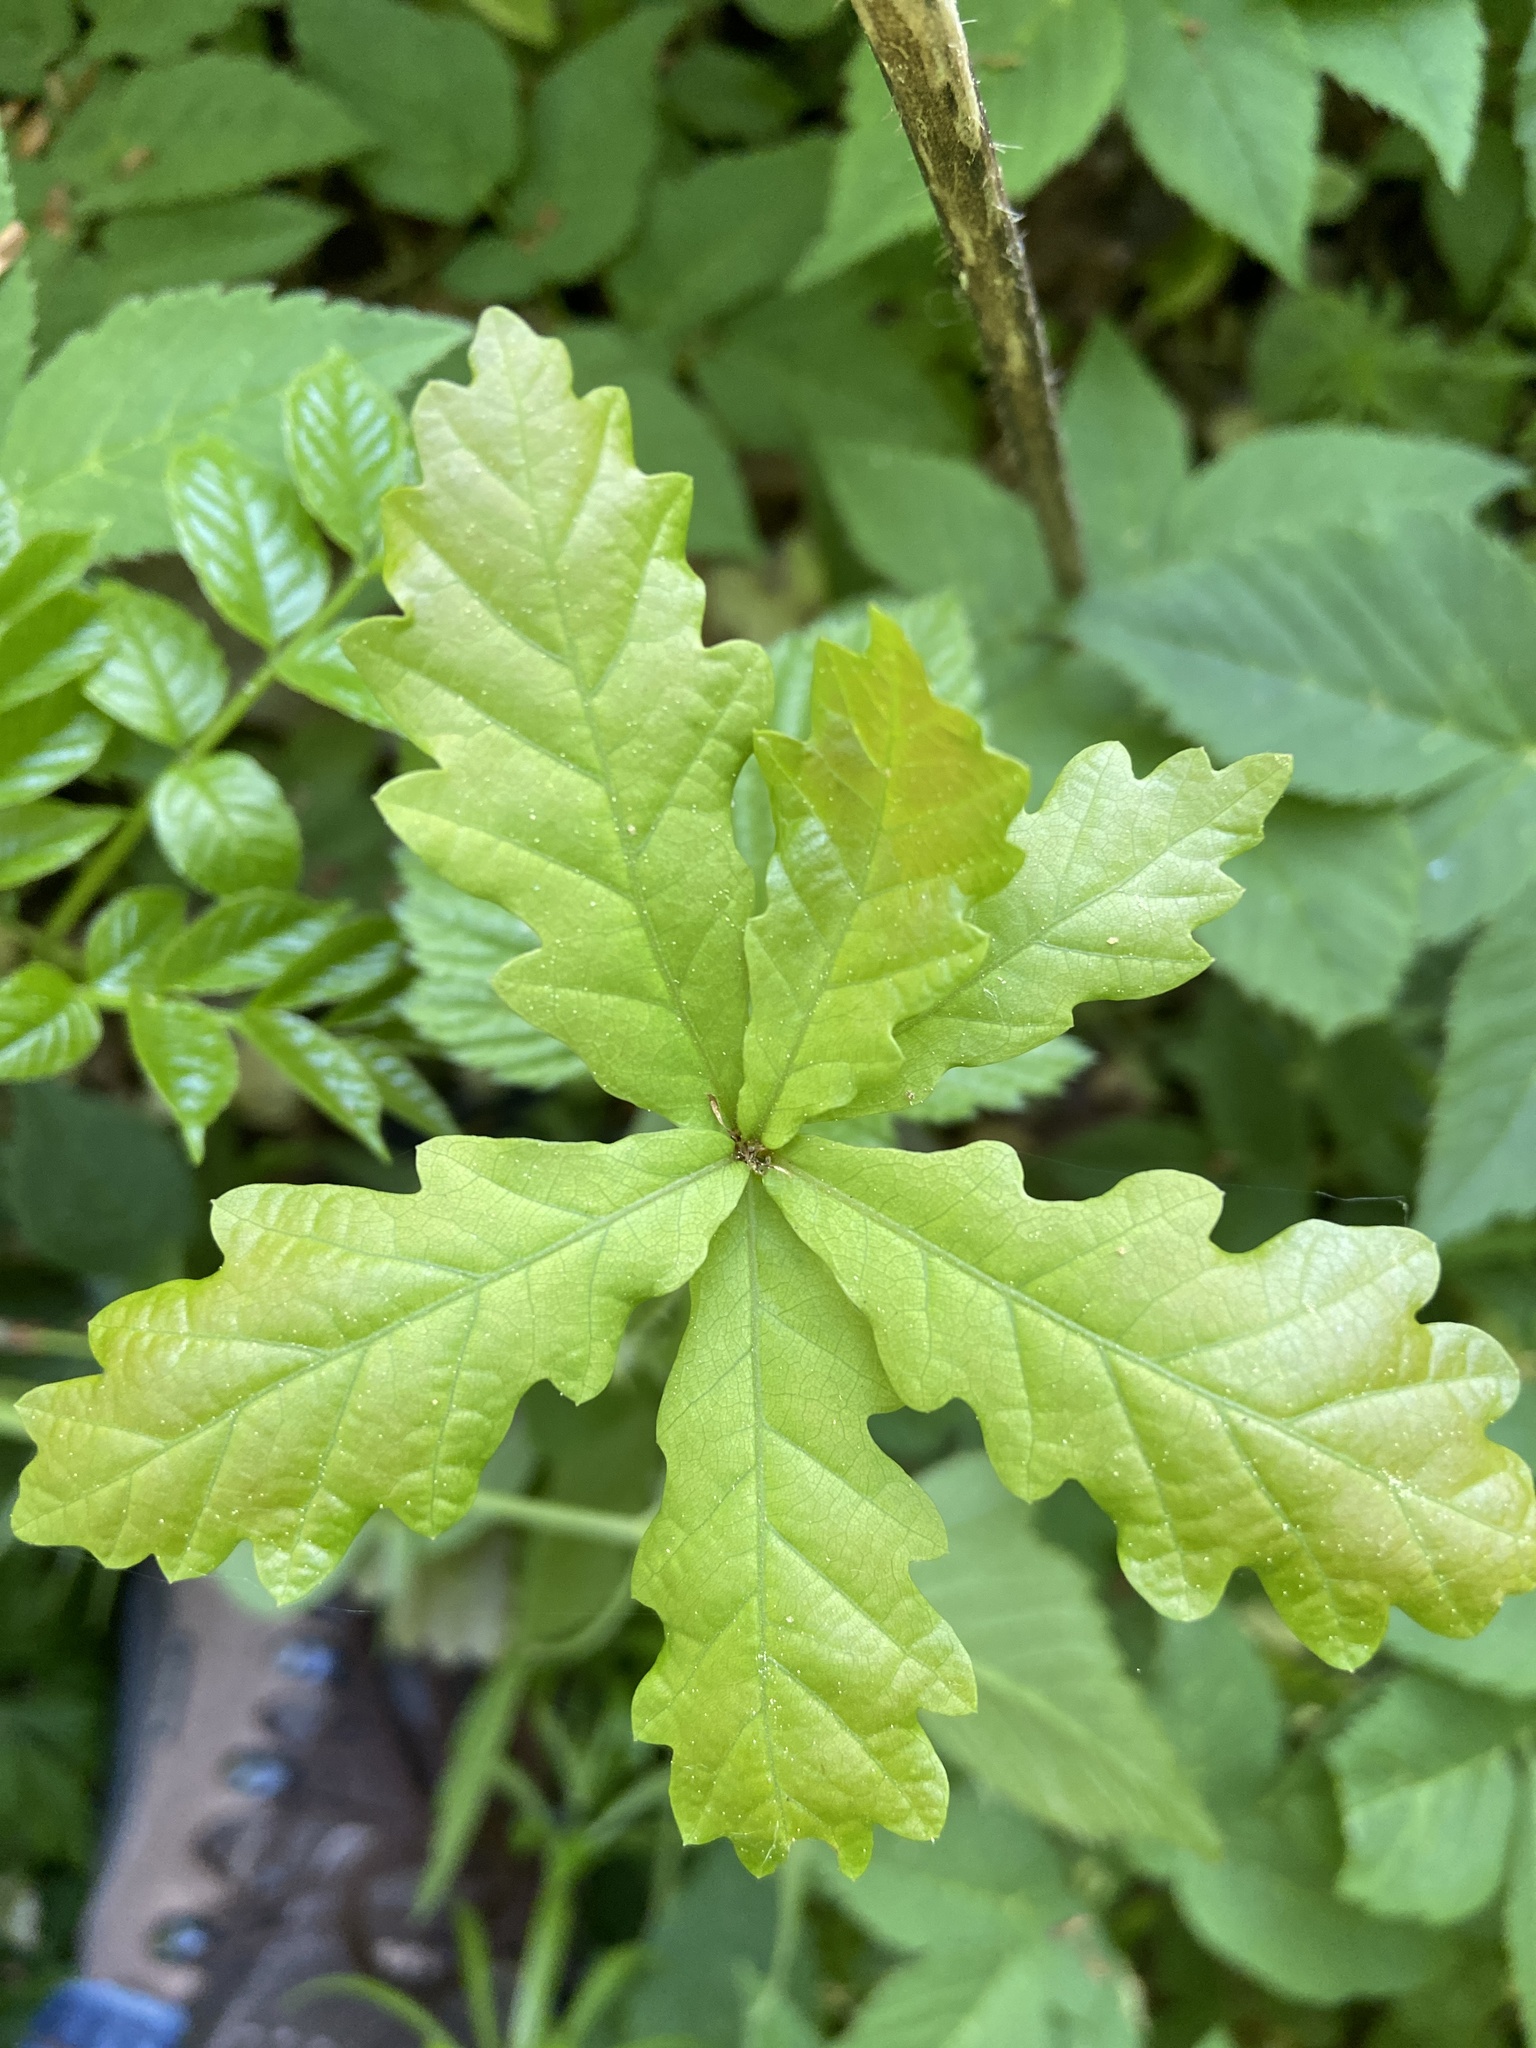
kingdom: Plantae
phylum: Tracheophyta
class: Magnoliopsida
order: Fagales
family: Fagaceae
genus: Quercus
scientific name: Quercus robur
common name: Pedunculate oak
